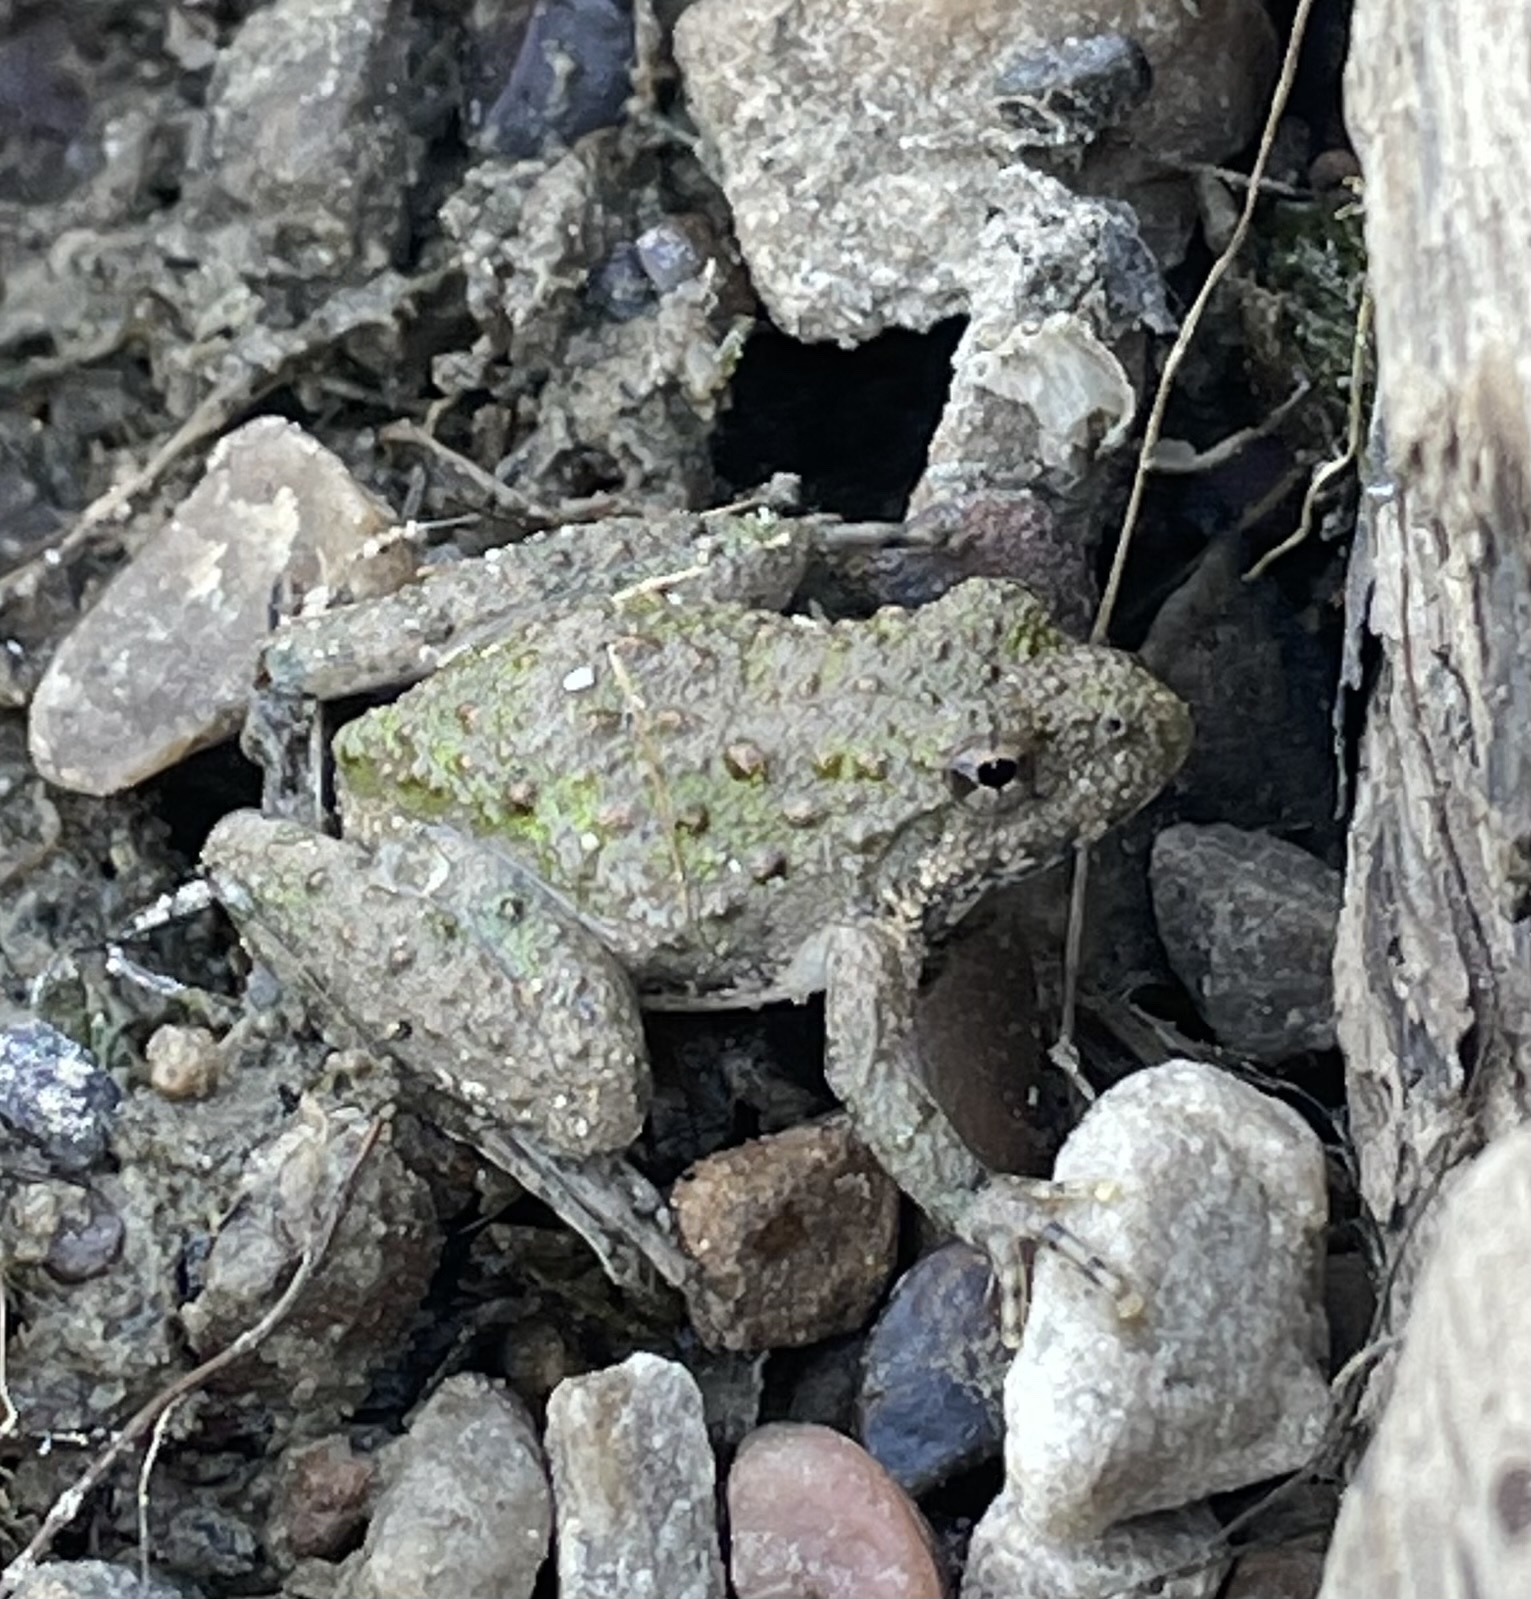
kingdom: Animalia
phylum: Chordata
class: Amphibia
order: Anura
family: Hylidae
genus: Acris
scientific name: Acris blanchardi
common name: Blanchard's cricket frog
